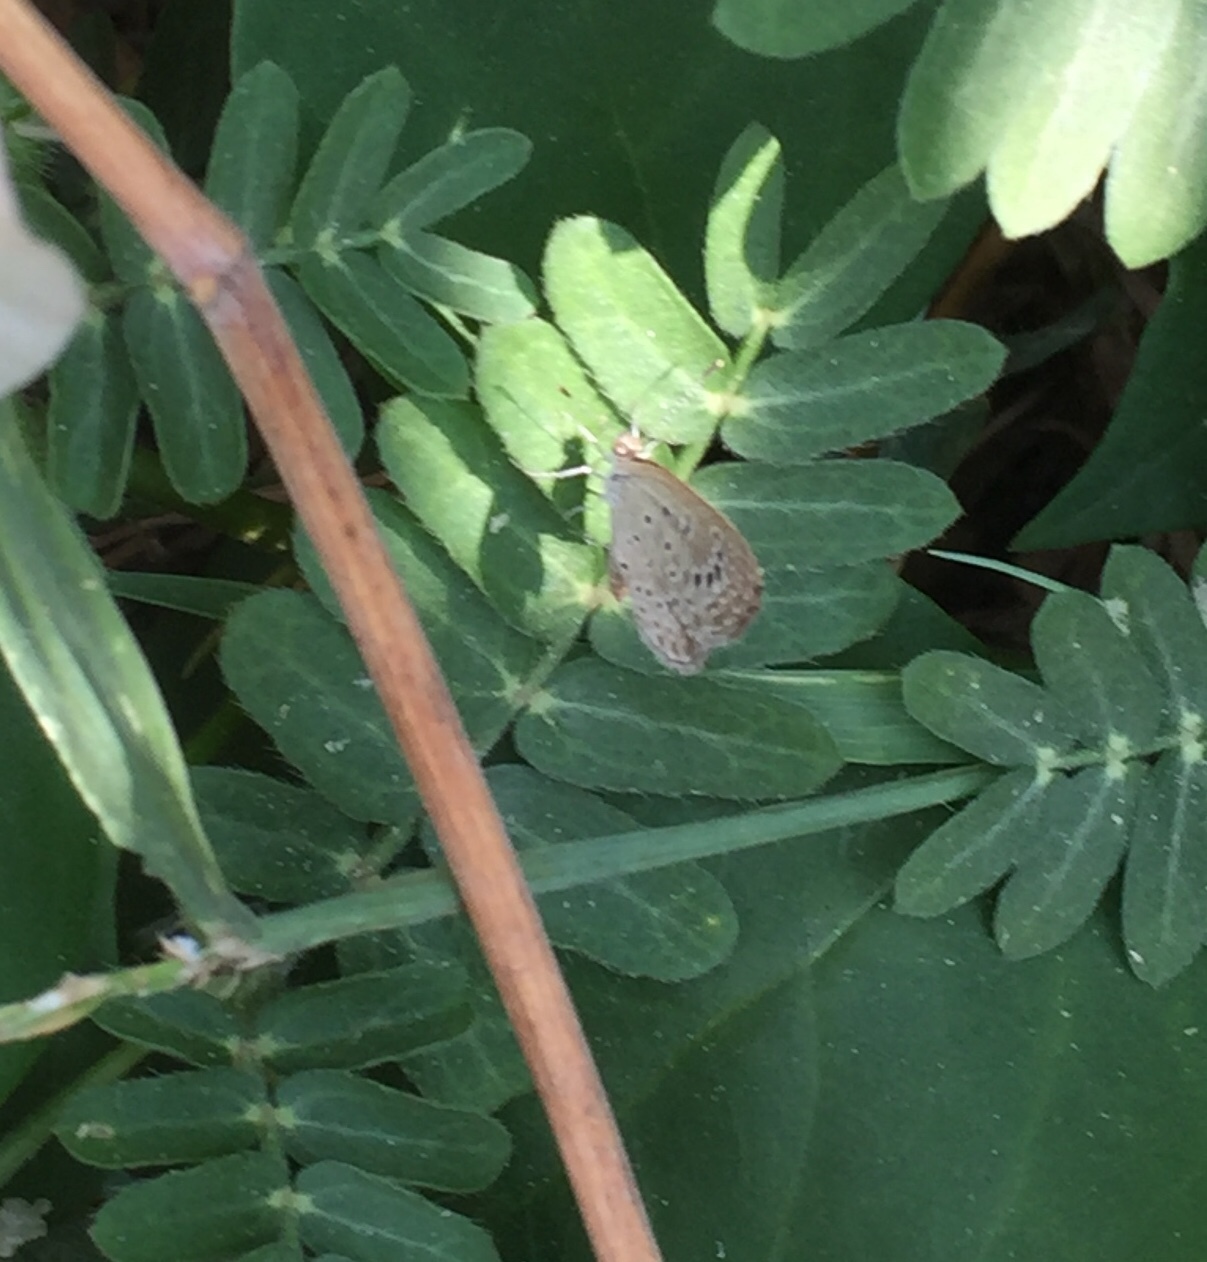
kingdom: Animalia
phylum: Arthropoda
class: Insecta
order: Lepidoptera
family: Lycaenidae
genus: Pseudozizeeria
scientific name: Pseudozizeeria maha
